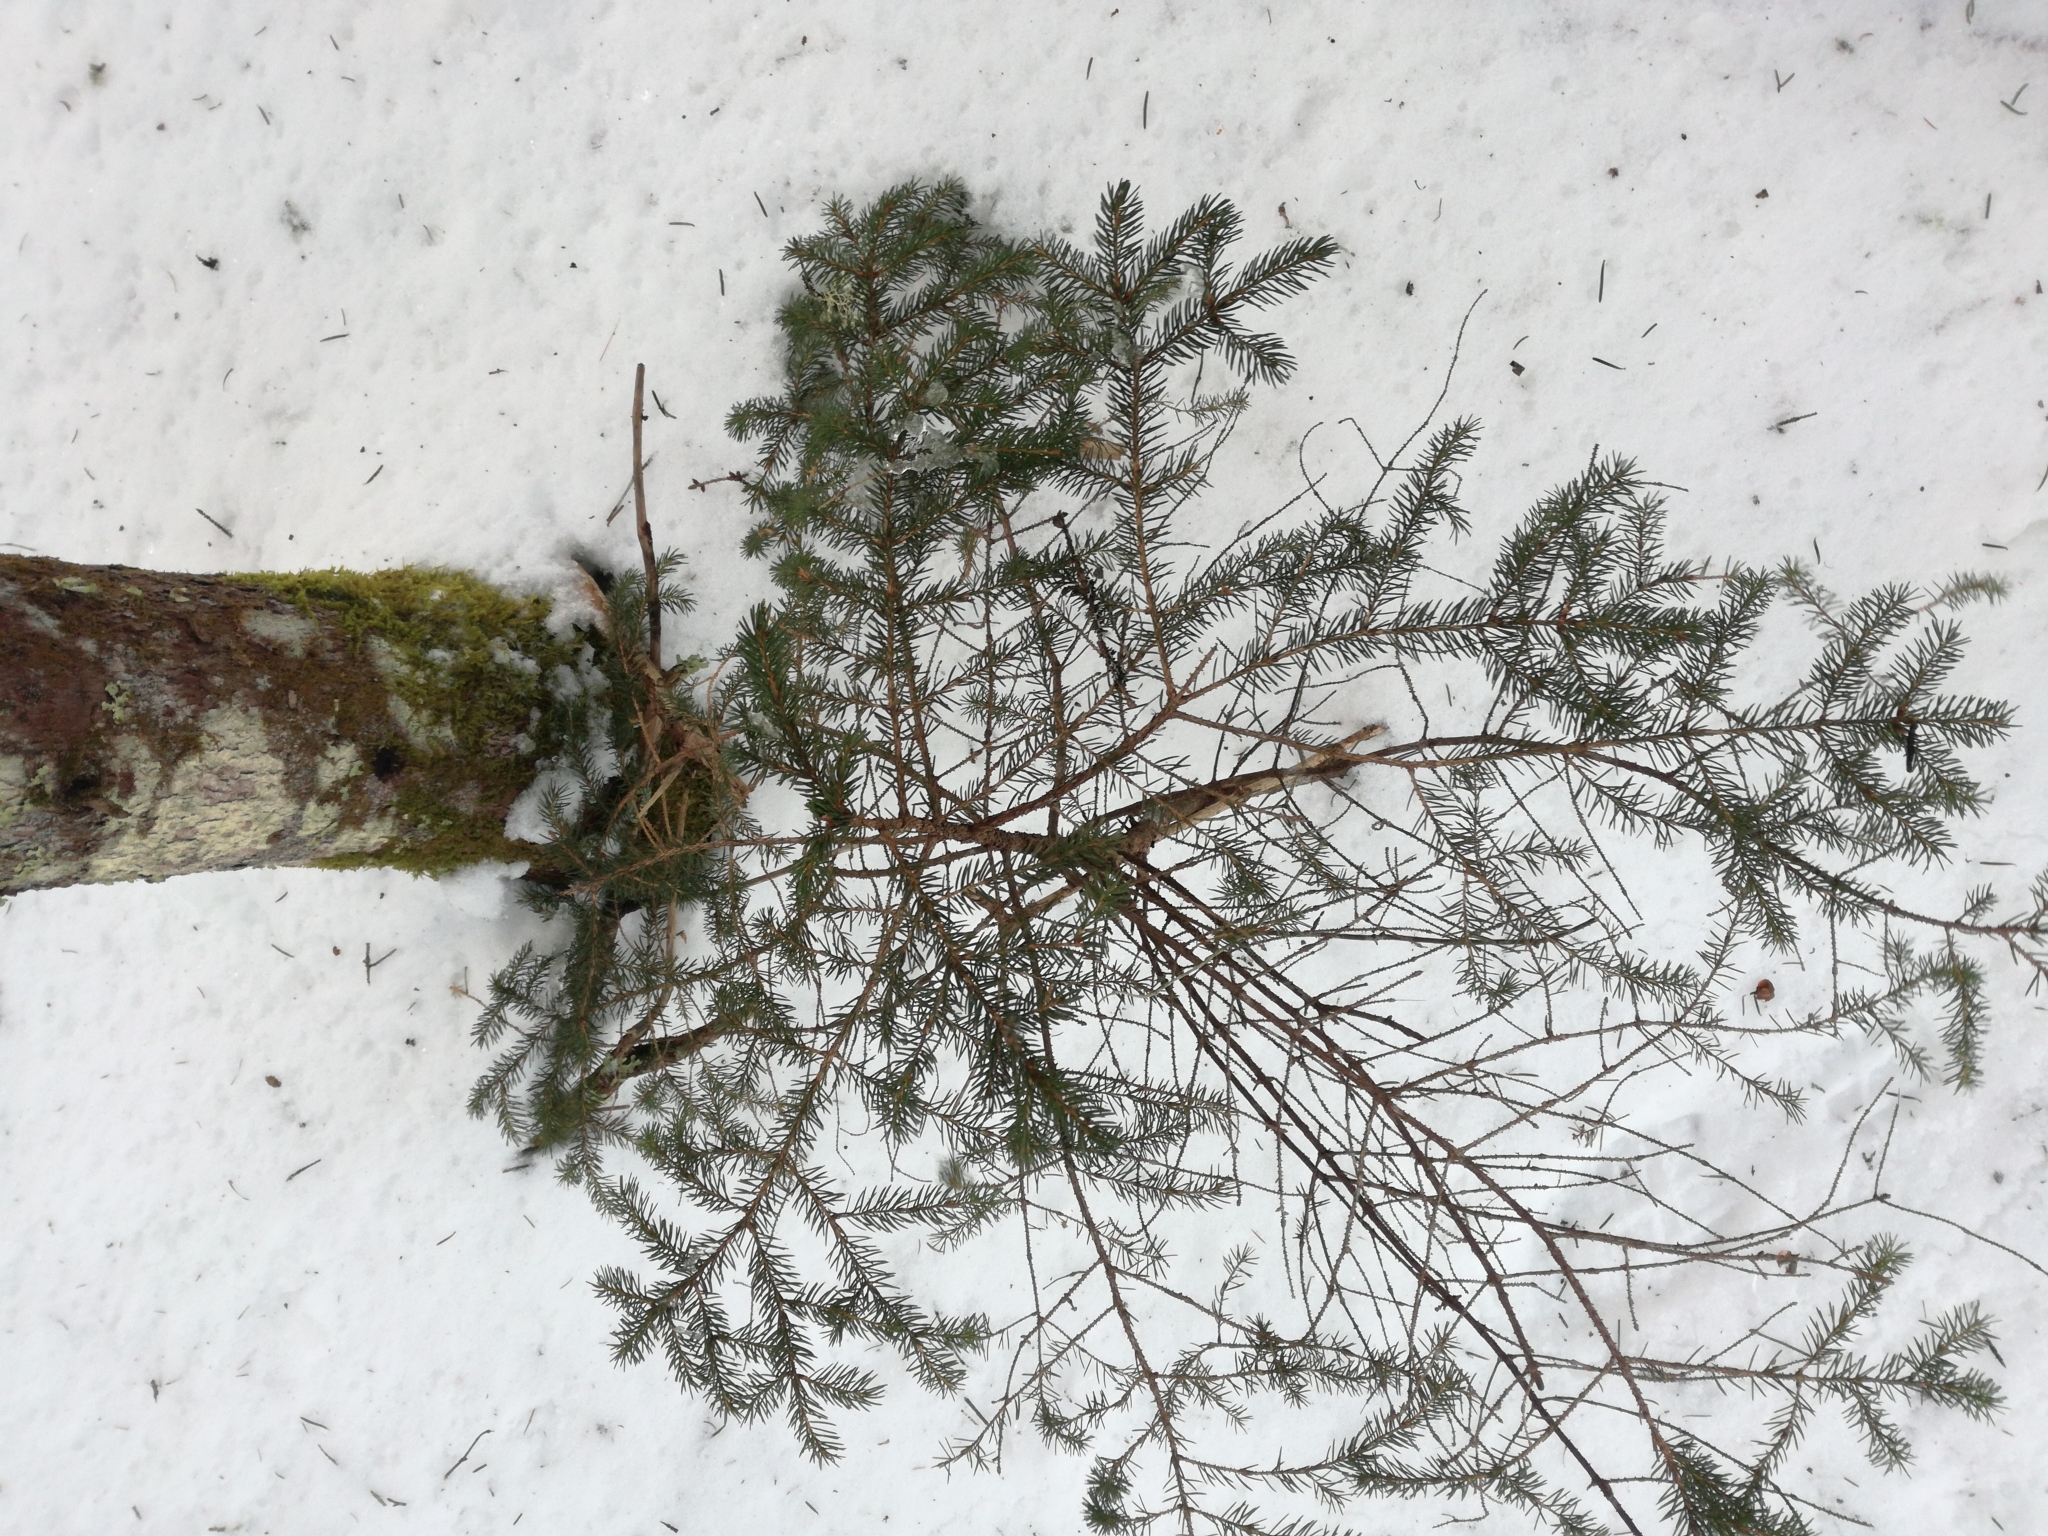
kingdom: Plantae
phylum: Tracheophyta
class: Pinopsida
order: Pinales
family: Pinaceae
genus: Picea
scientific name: Picea rubens
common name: Red spruce
